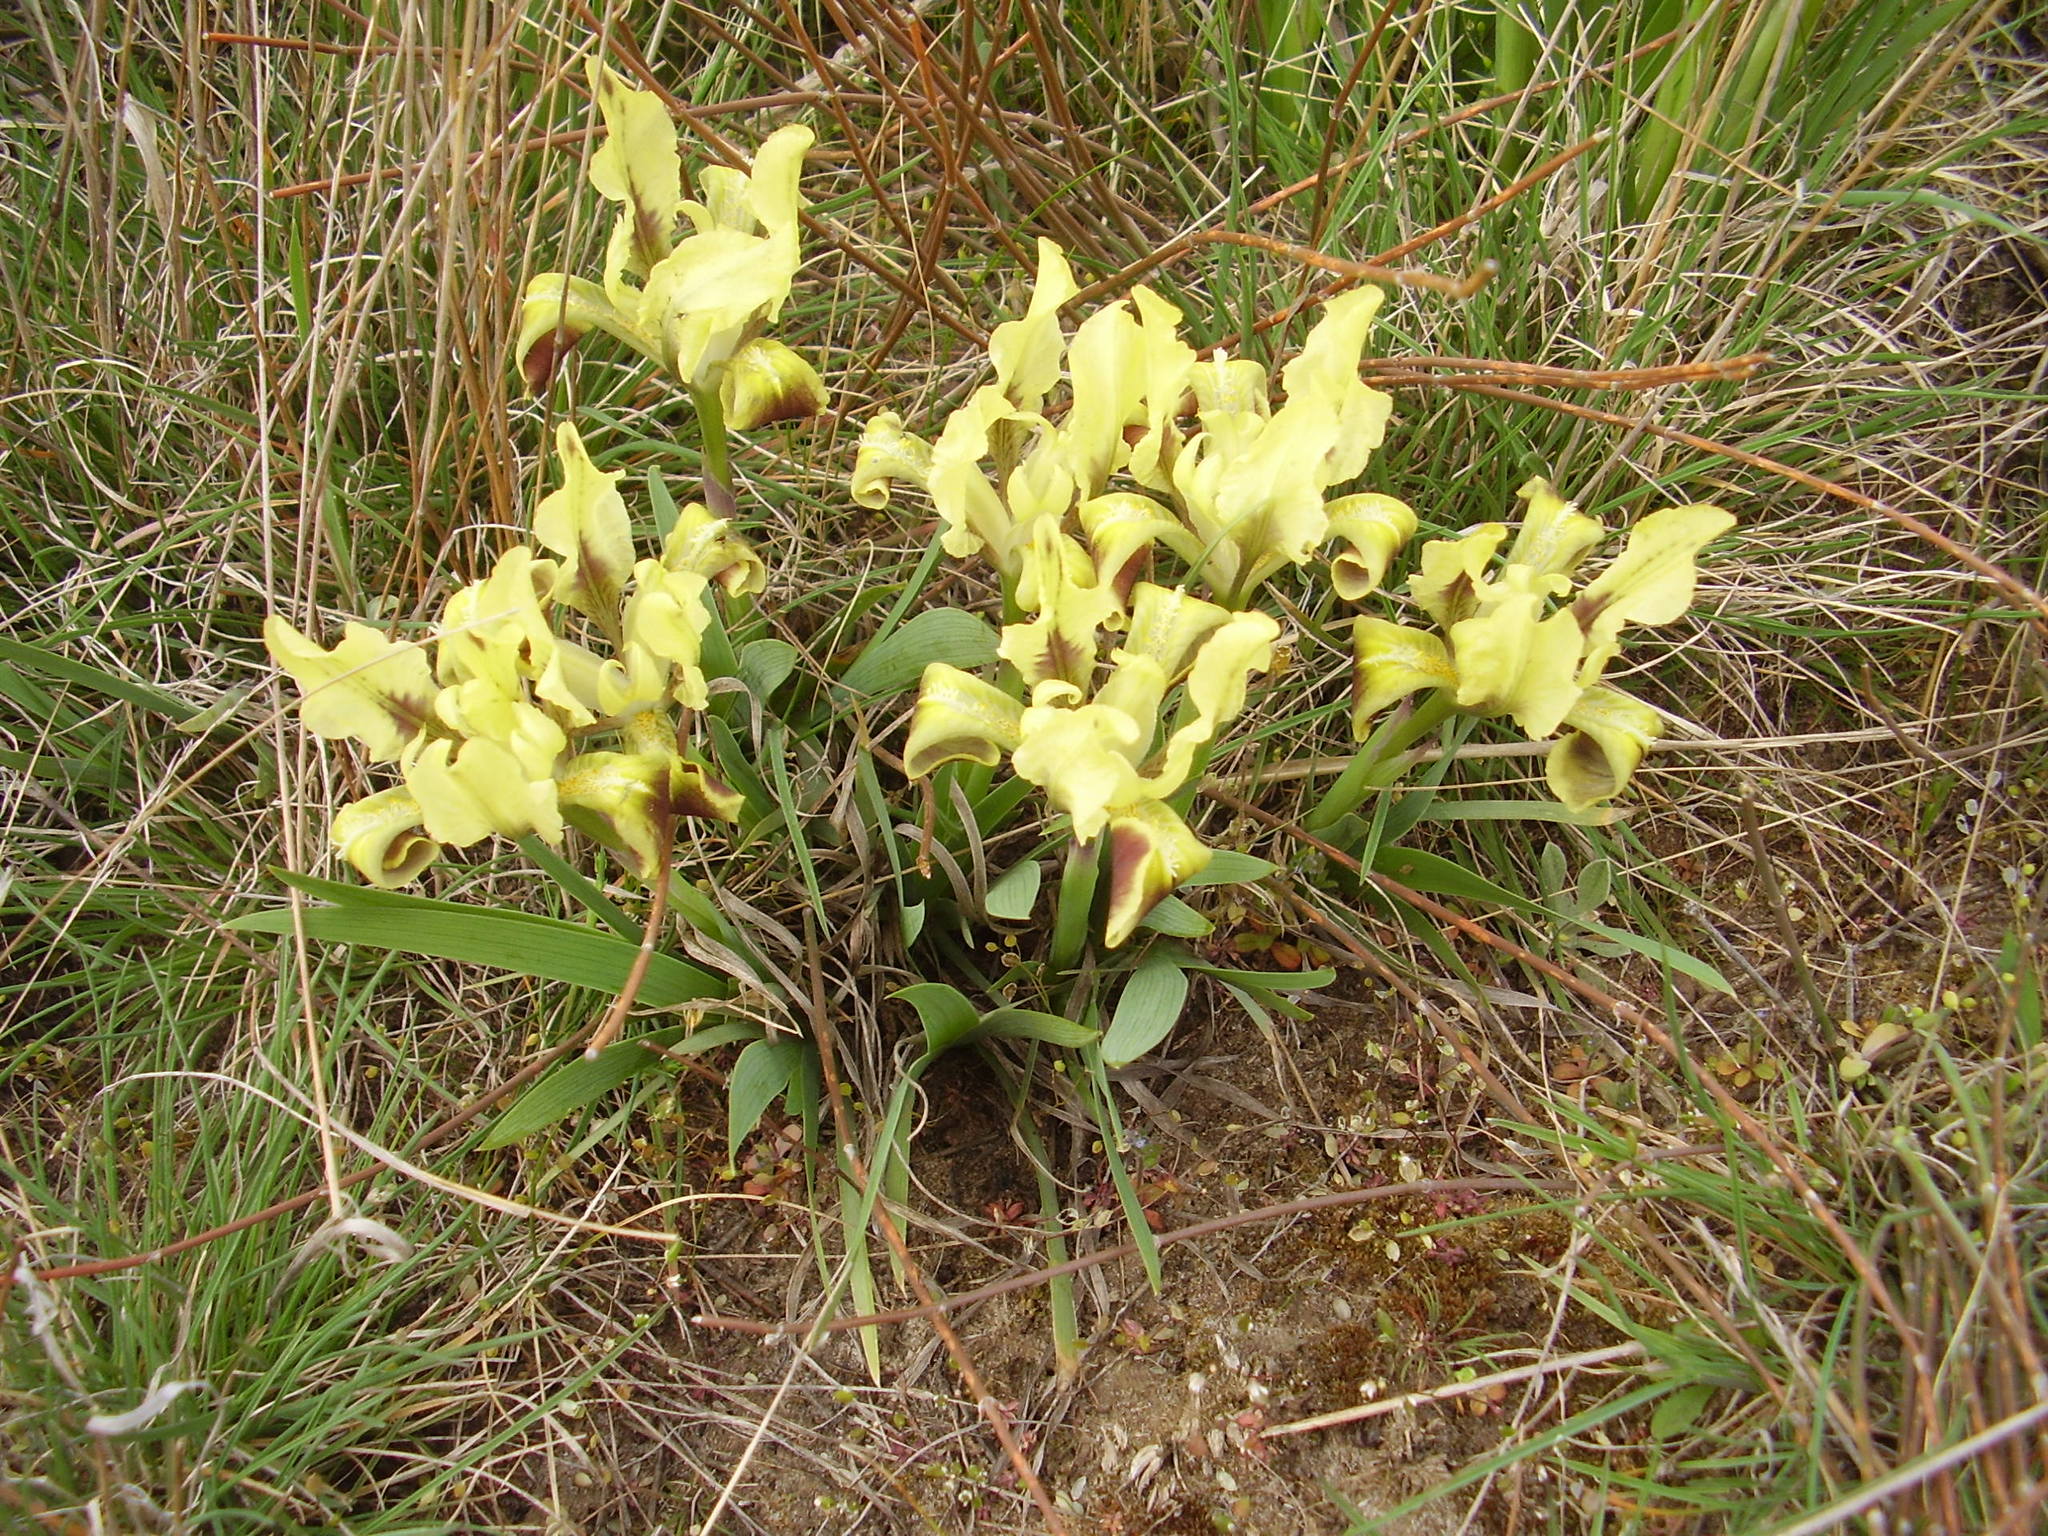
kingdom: Plantae
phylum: Tracheophyta
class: Liliopsida
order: Asparagales
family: Iridaceae
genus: Iris
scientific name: Iris pumila
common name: Dwarf iris
